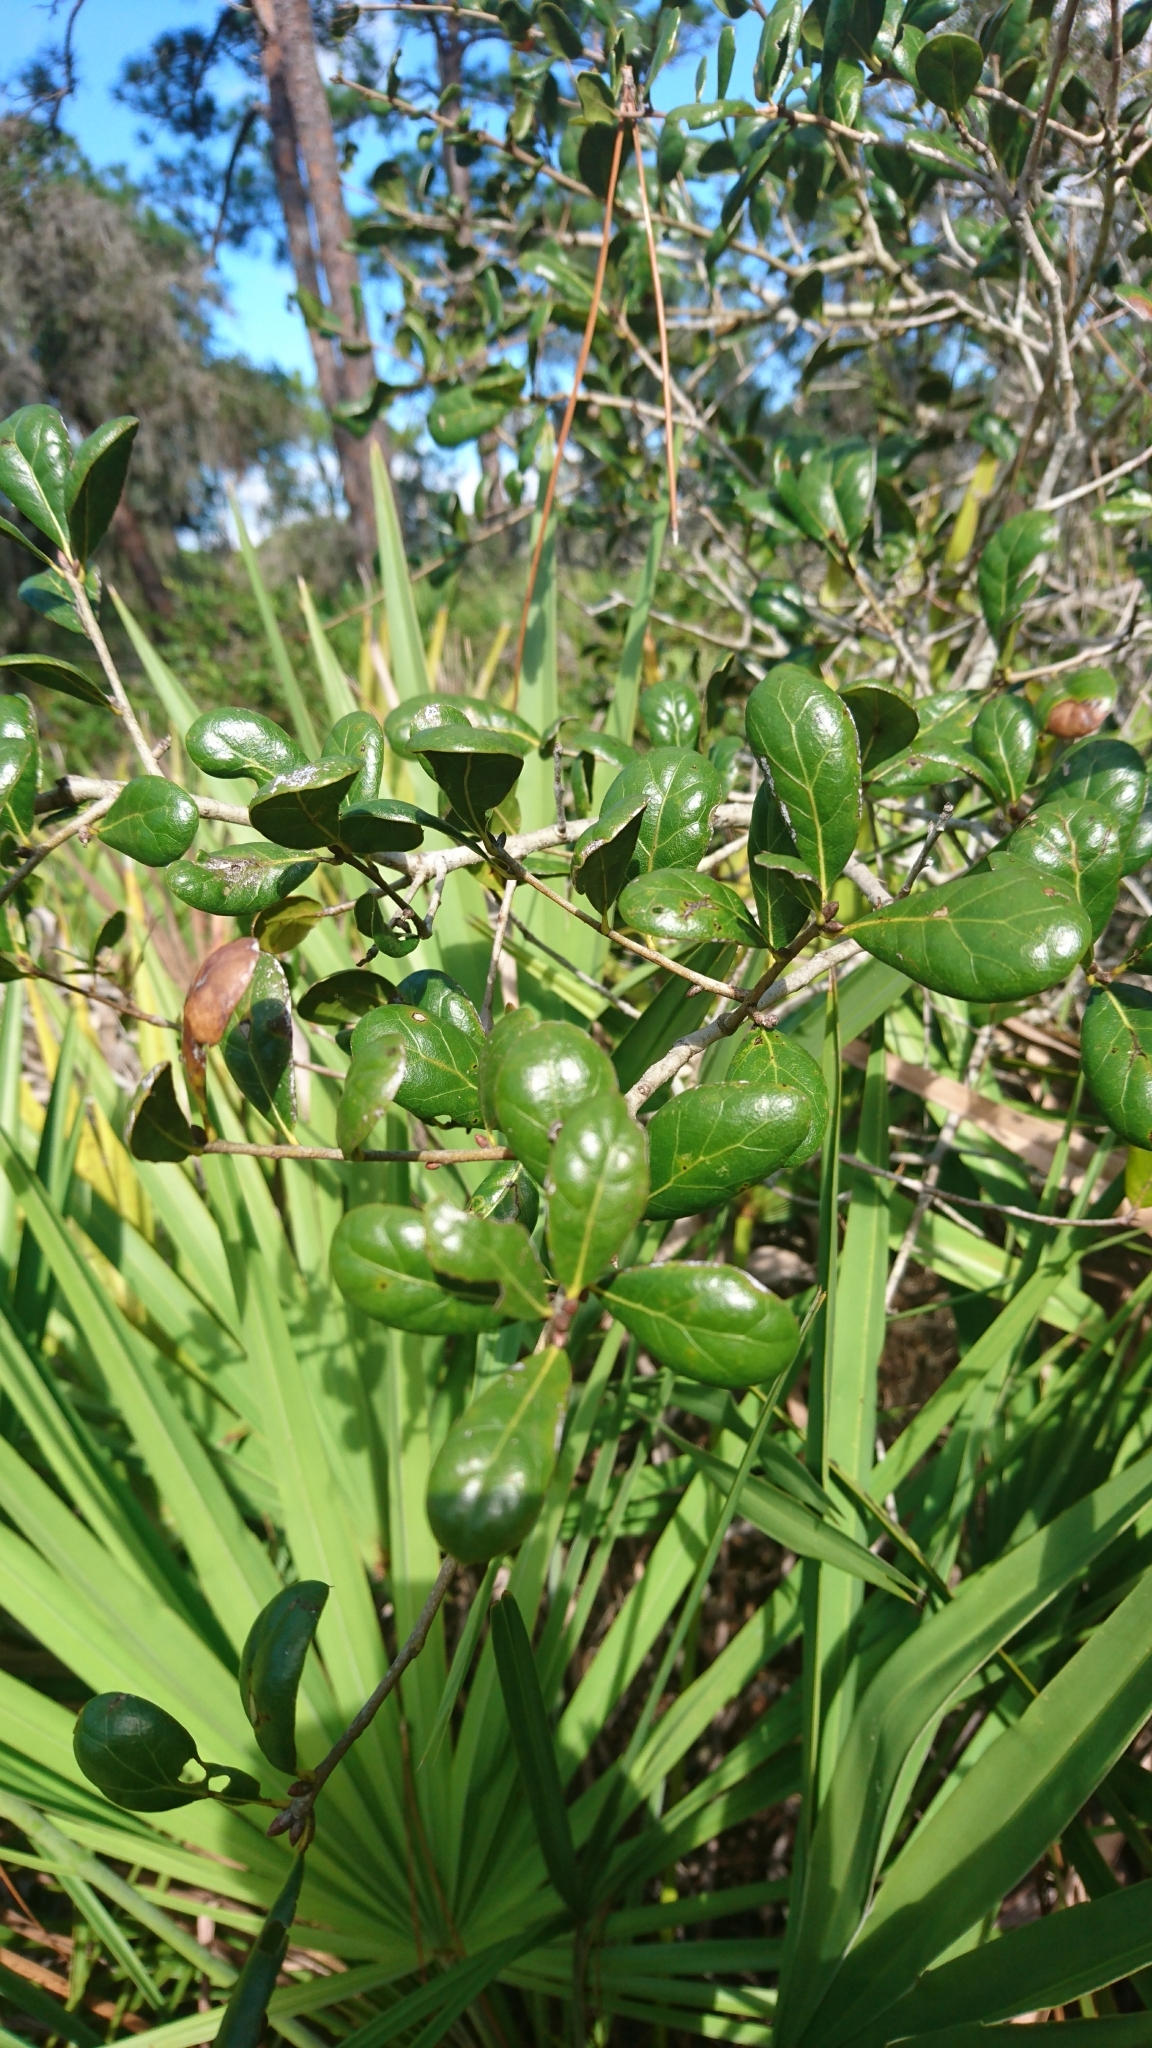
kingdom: Plantae
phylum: Tracheophyta
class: Magnoliopsida
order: Fagales
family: Fagaceae
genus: Quercus
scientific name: Quercus myrtifolia
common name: Myrtle oak
